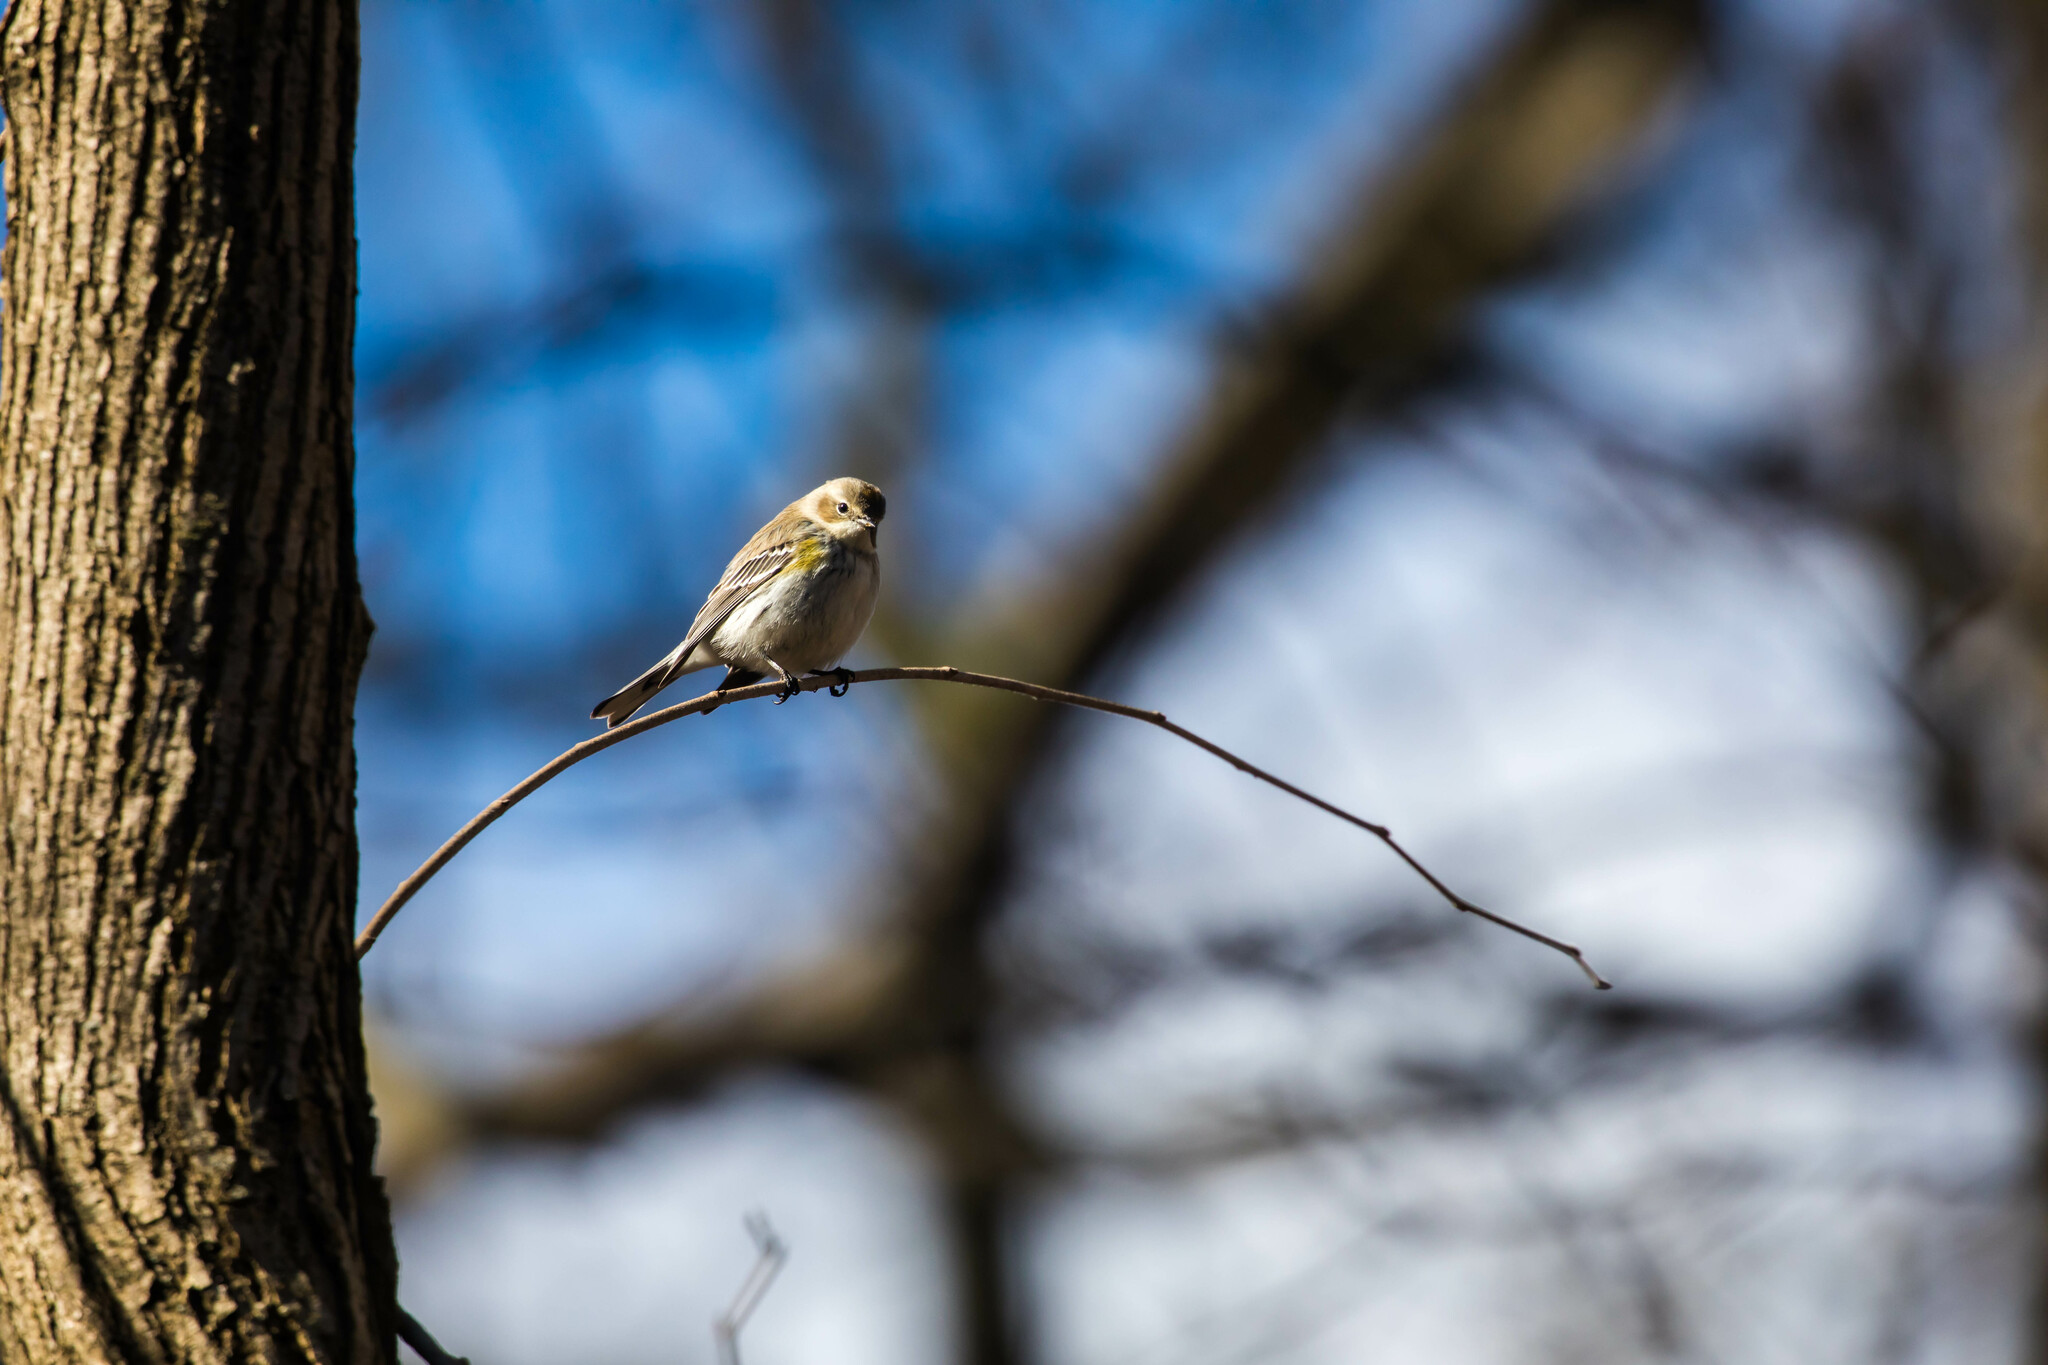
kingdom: Animalia
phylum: Chordata
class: Aves
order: Passeriformes
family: Parulidae
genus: Setophaga
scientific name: Setophaga coronata
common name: Myrtle warbler
